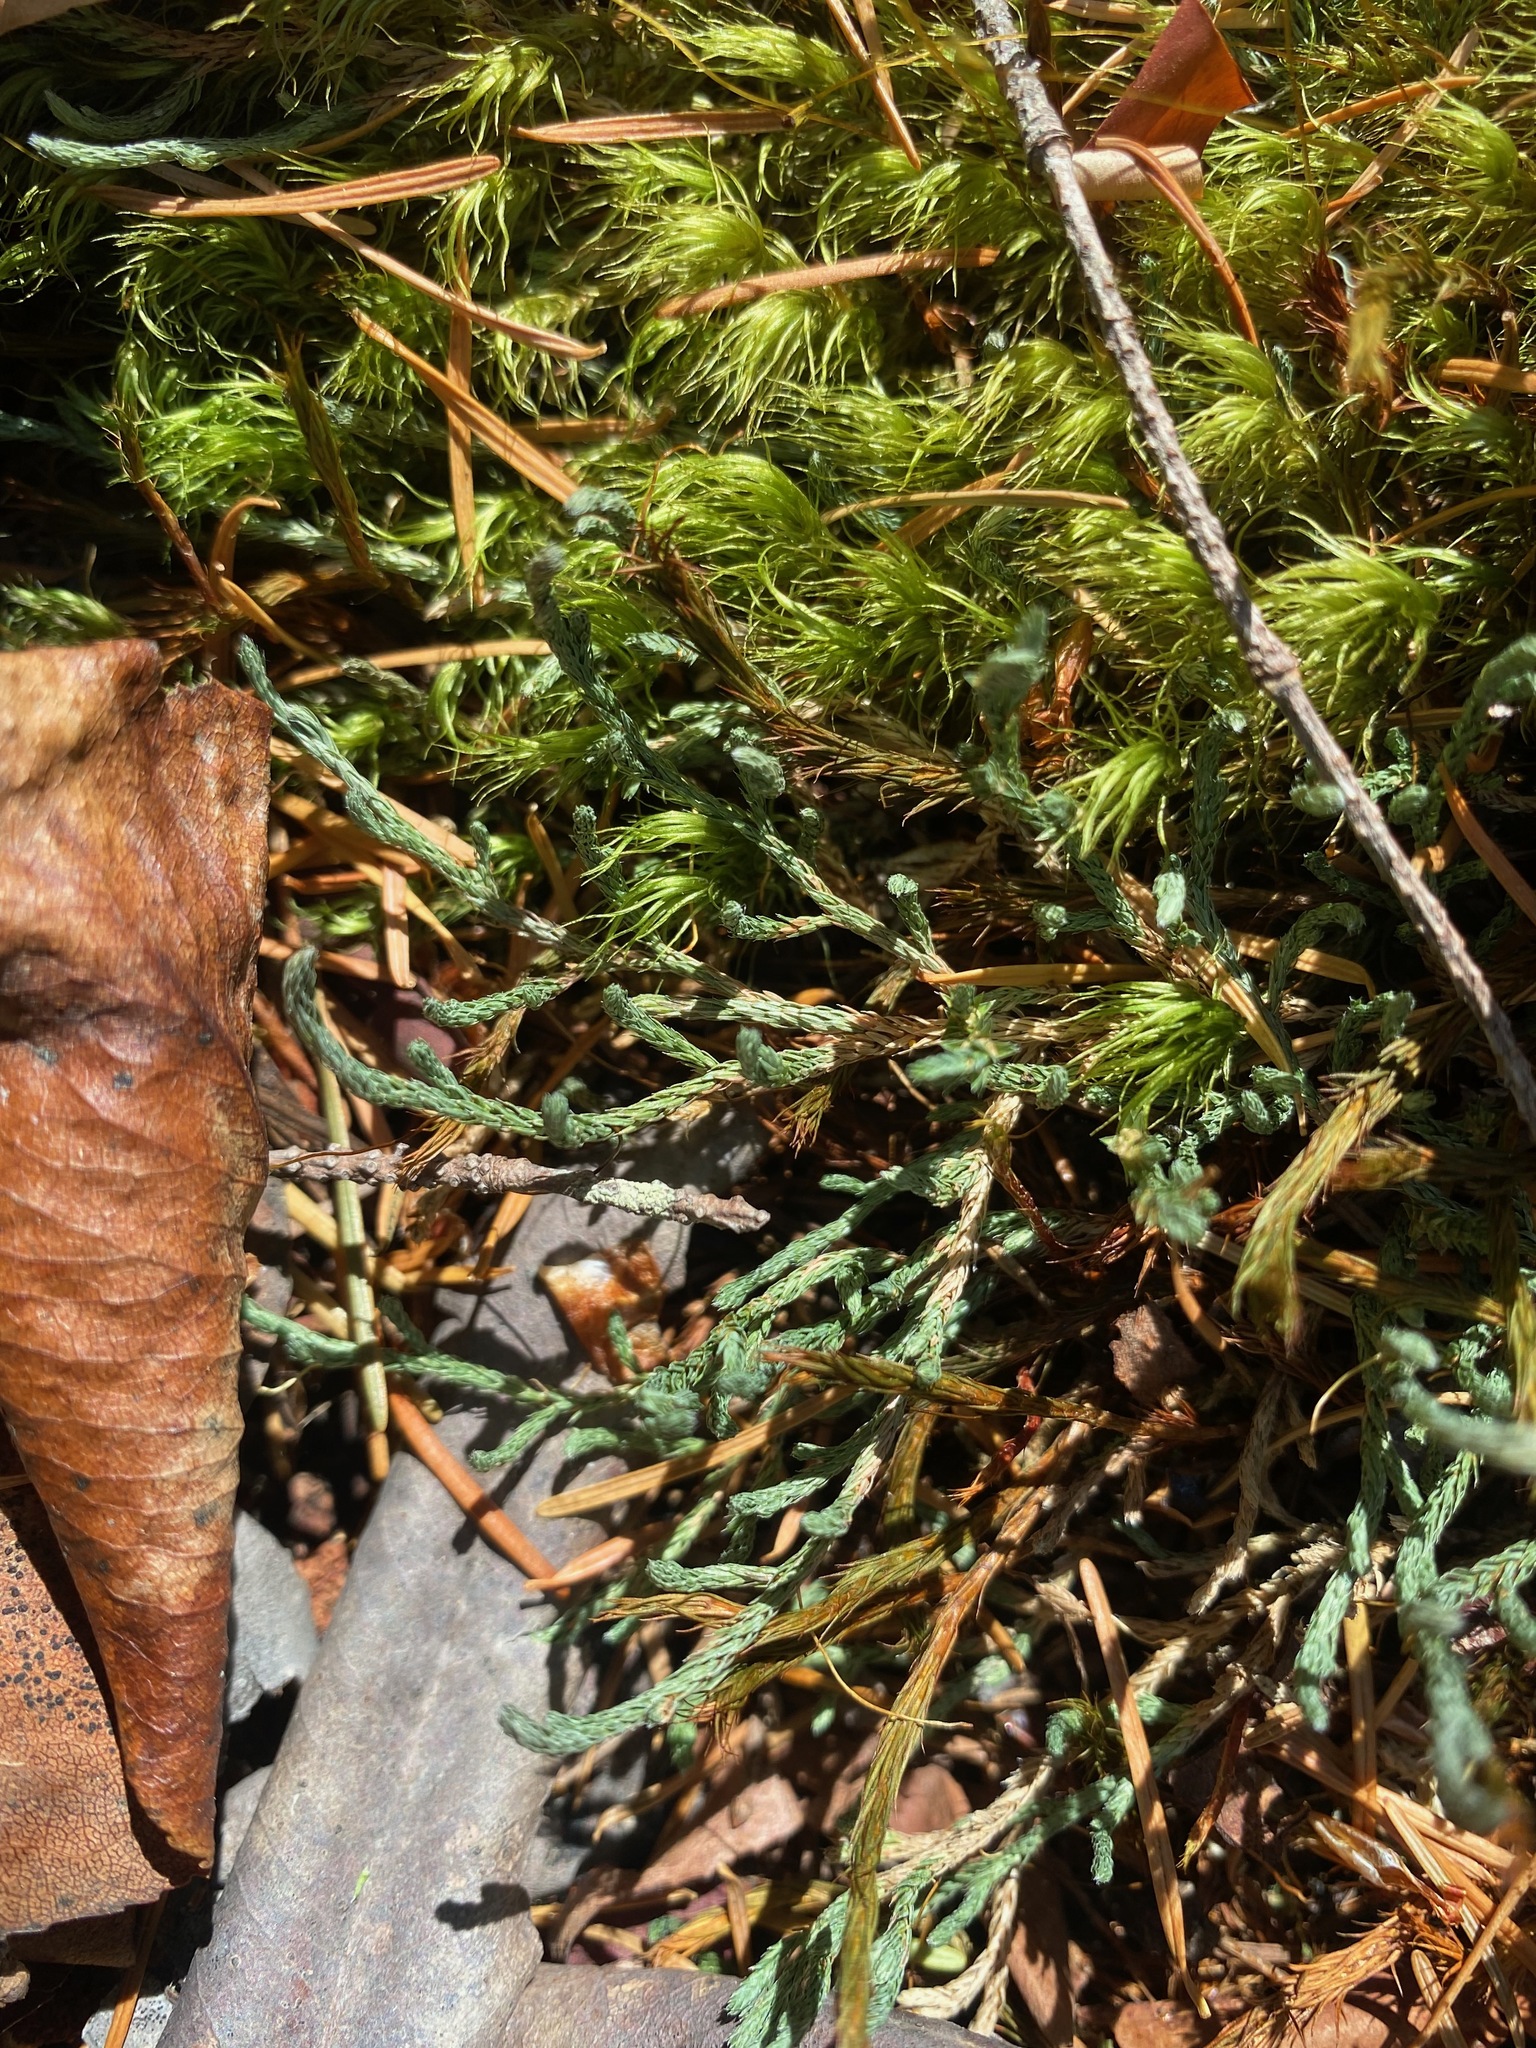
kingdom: Plantae
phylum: Tracheophyta
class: Lycopodiopsida
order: Selaginellales
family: Selaginellaceae
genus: Selaginella
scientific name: Selaginella wallacei
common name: Wallace's selaginella
